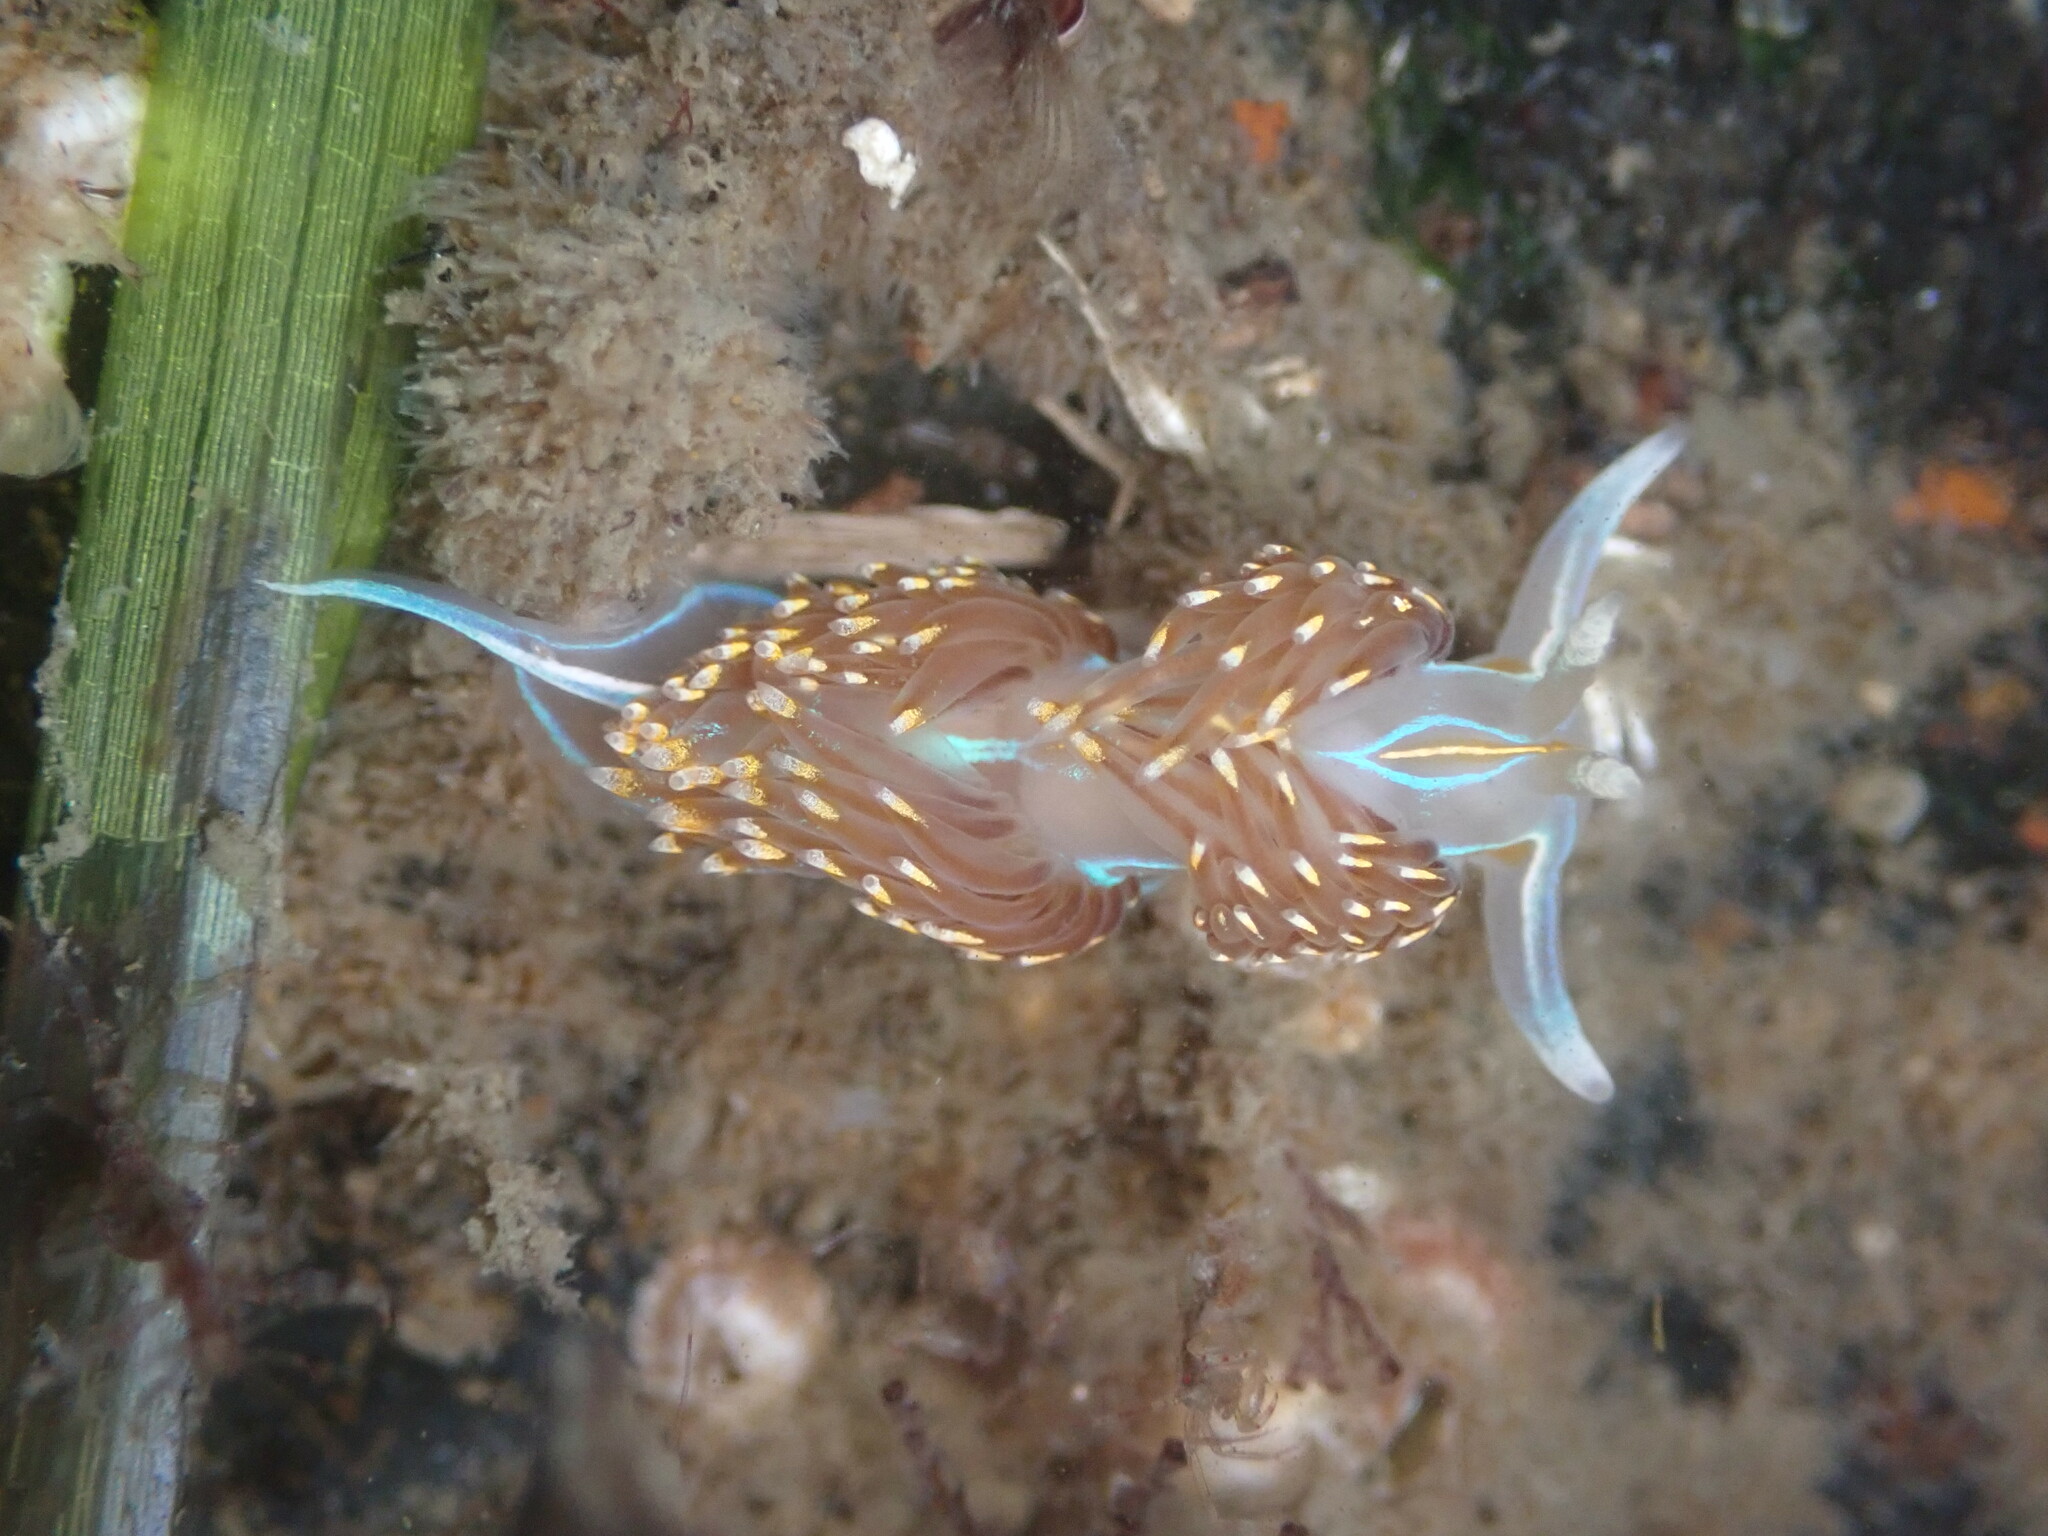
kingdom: Animalia
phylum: Mollusca
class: Gastropoda
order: Nudibranchia
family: Myrrhinidae
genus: Hermissenda
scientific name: Hermissenda opalescens
